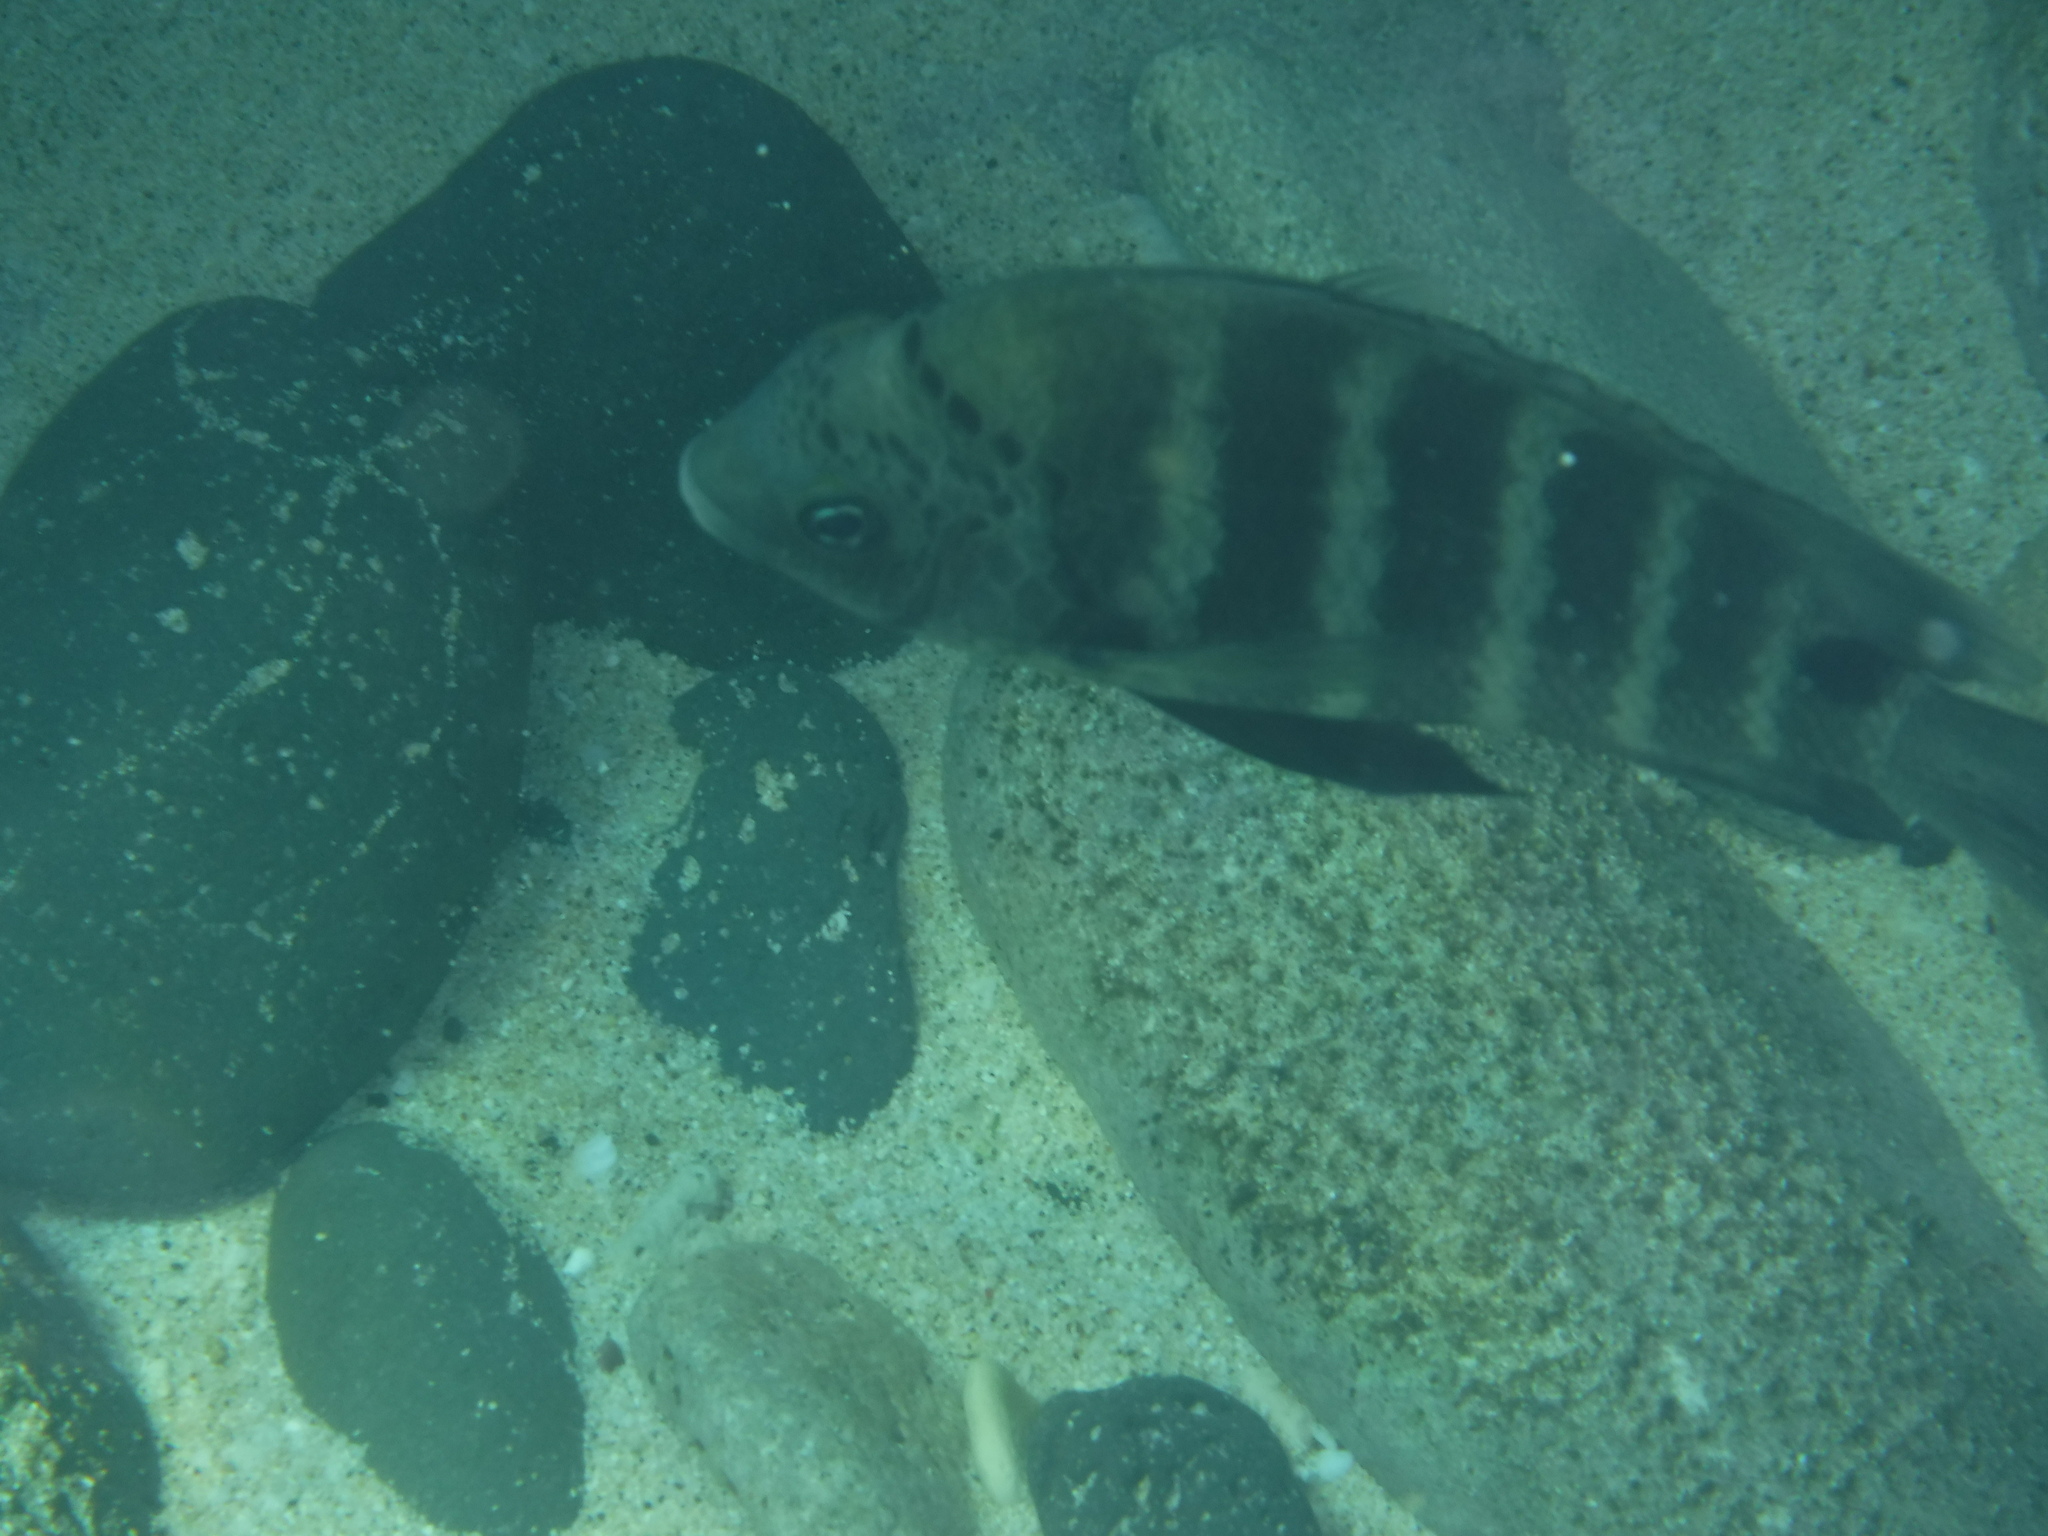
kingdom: Animalia
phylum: Chordata
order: Perciformes
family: Pomacentridae
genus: Abudefduf
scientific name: Abudefduf sordidus
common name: Blackspot sergeant
